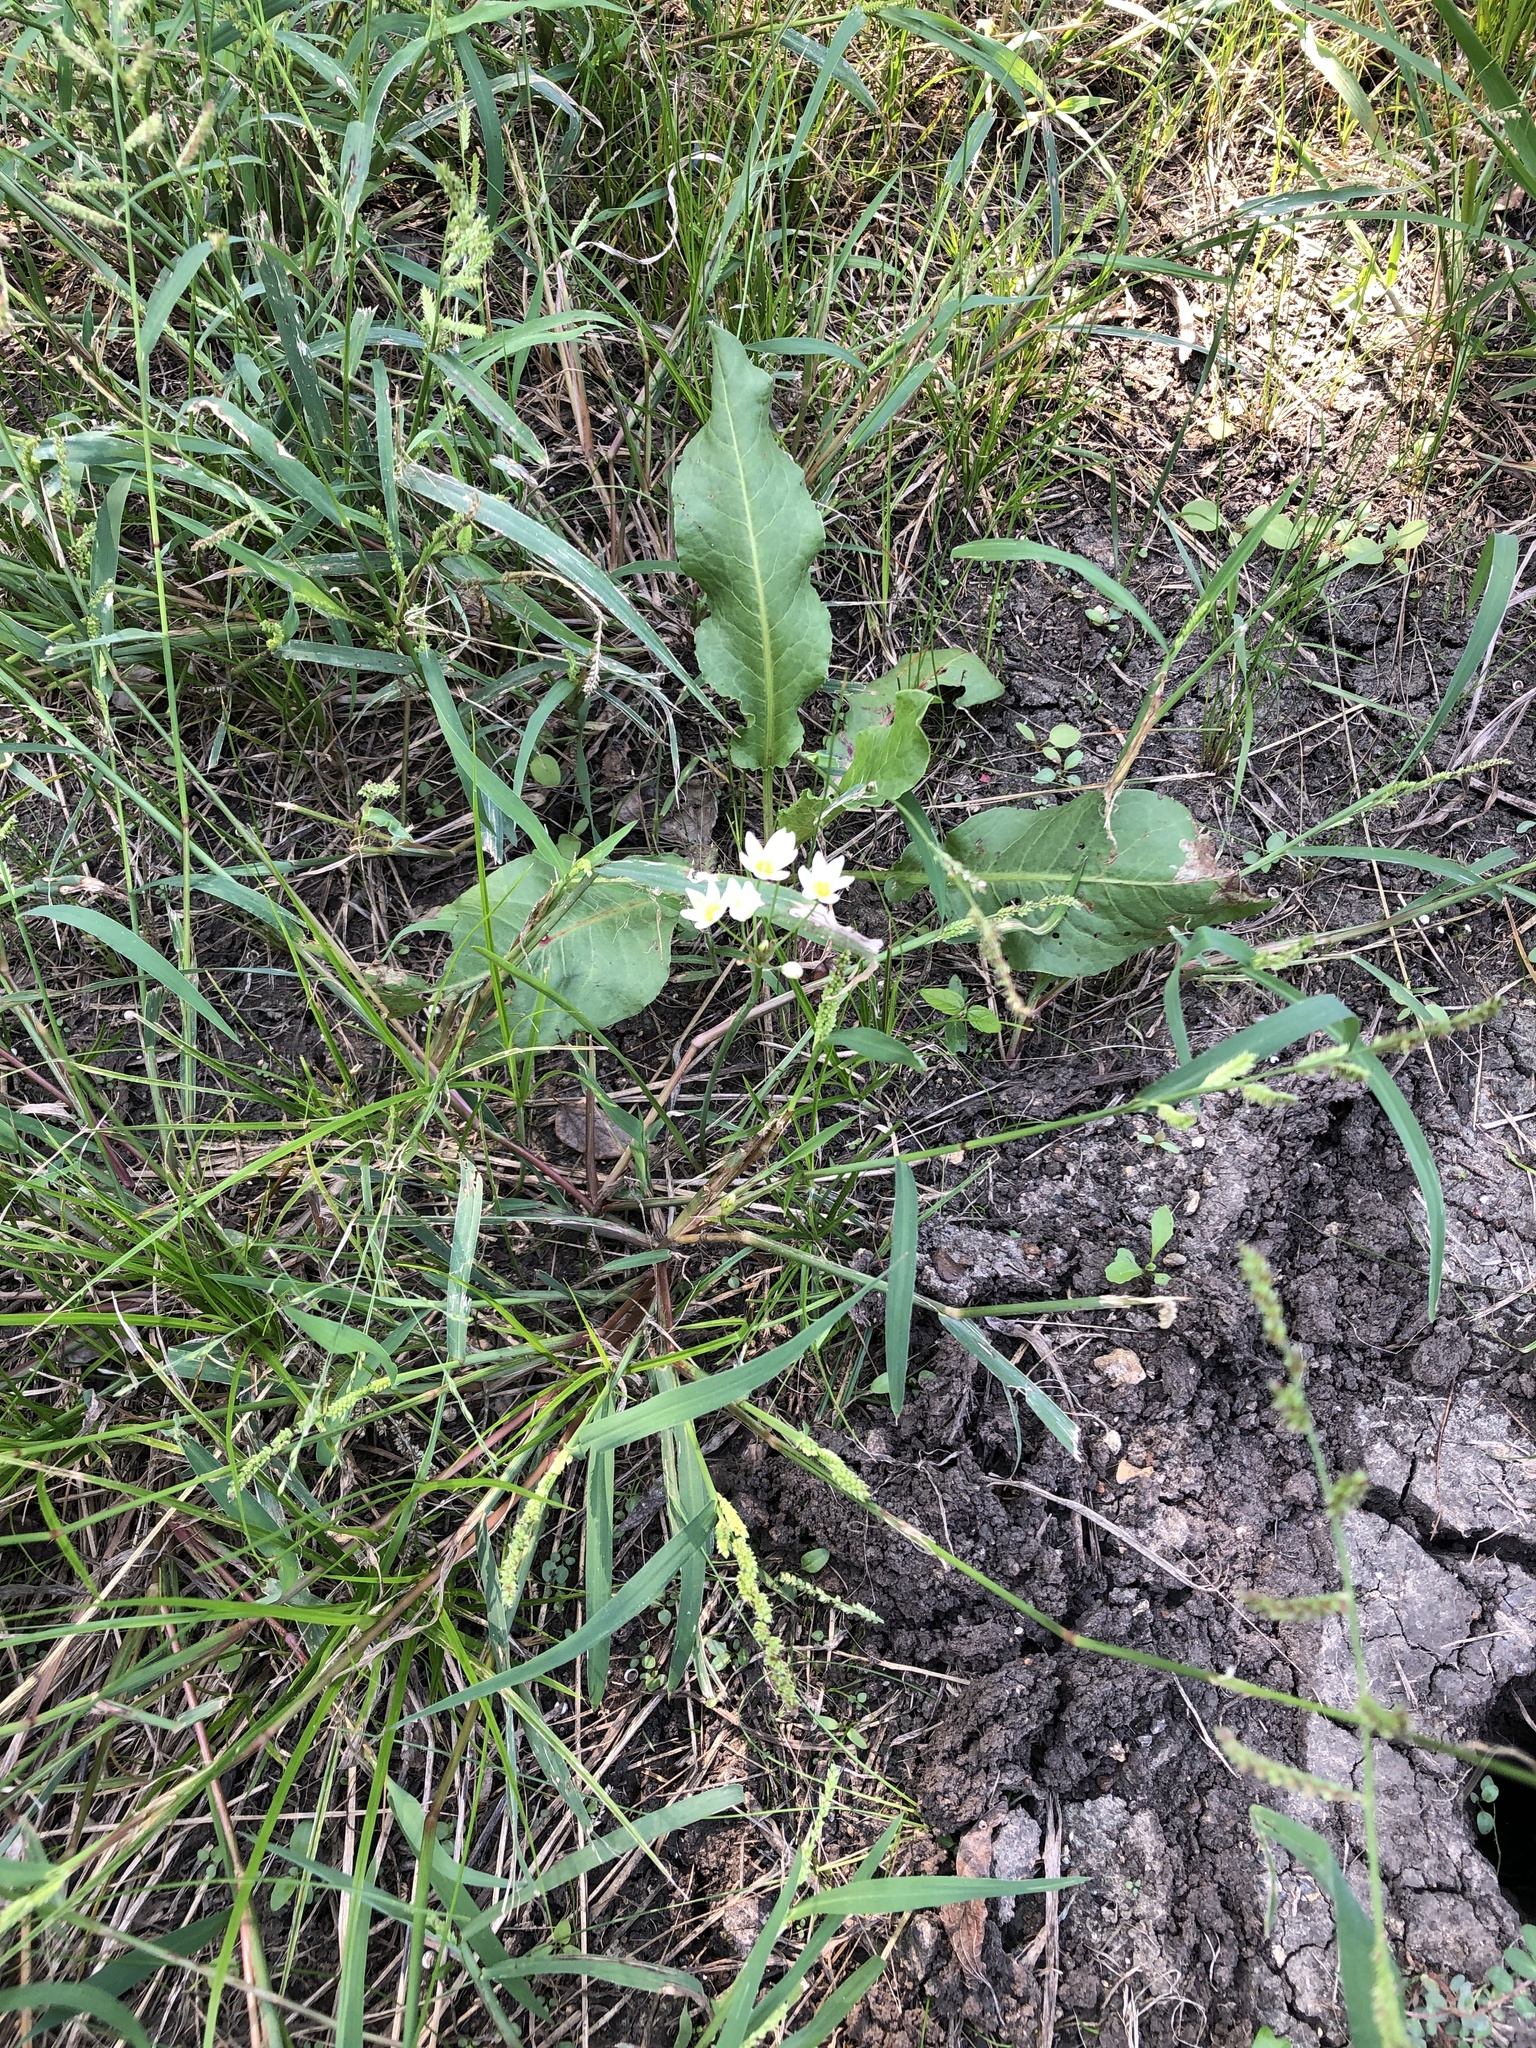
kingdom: Plantae
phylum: Tracheophyta
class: Liliopsida
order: Asparagales
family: Amaryllidaceae
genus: Nothoscordum
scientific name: Nothoscordum bivalve
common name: Crow-poison
